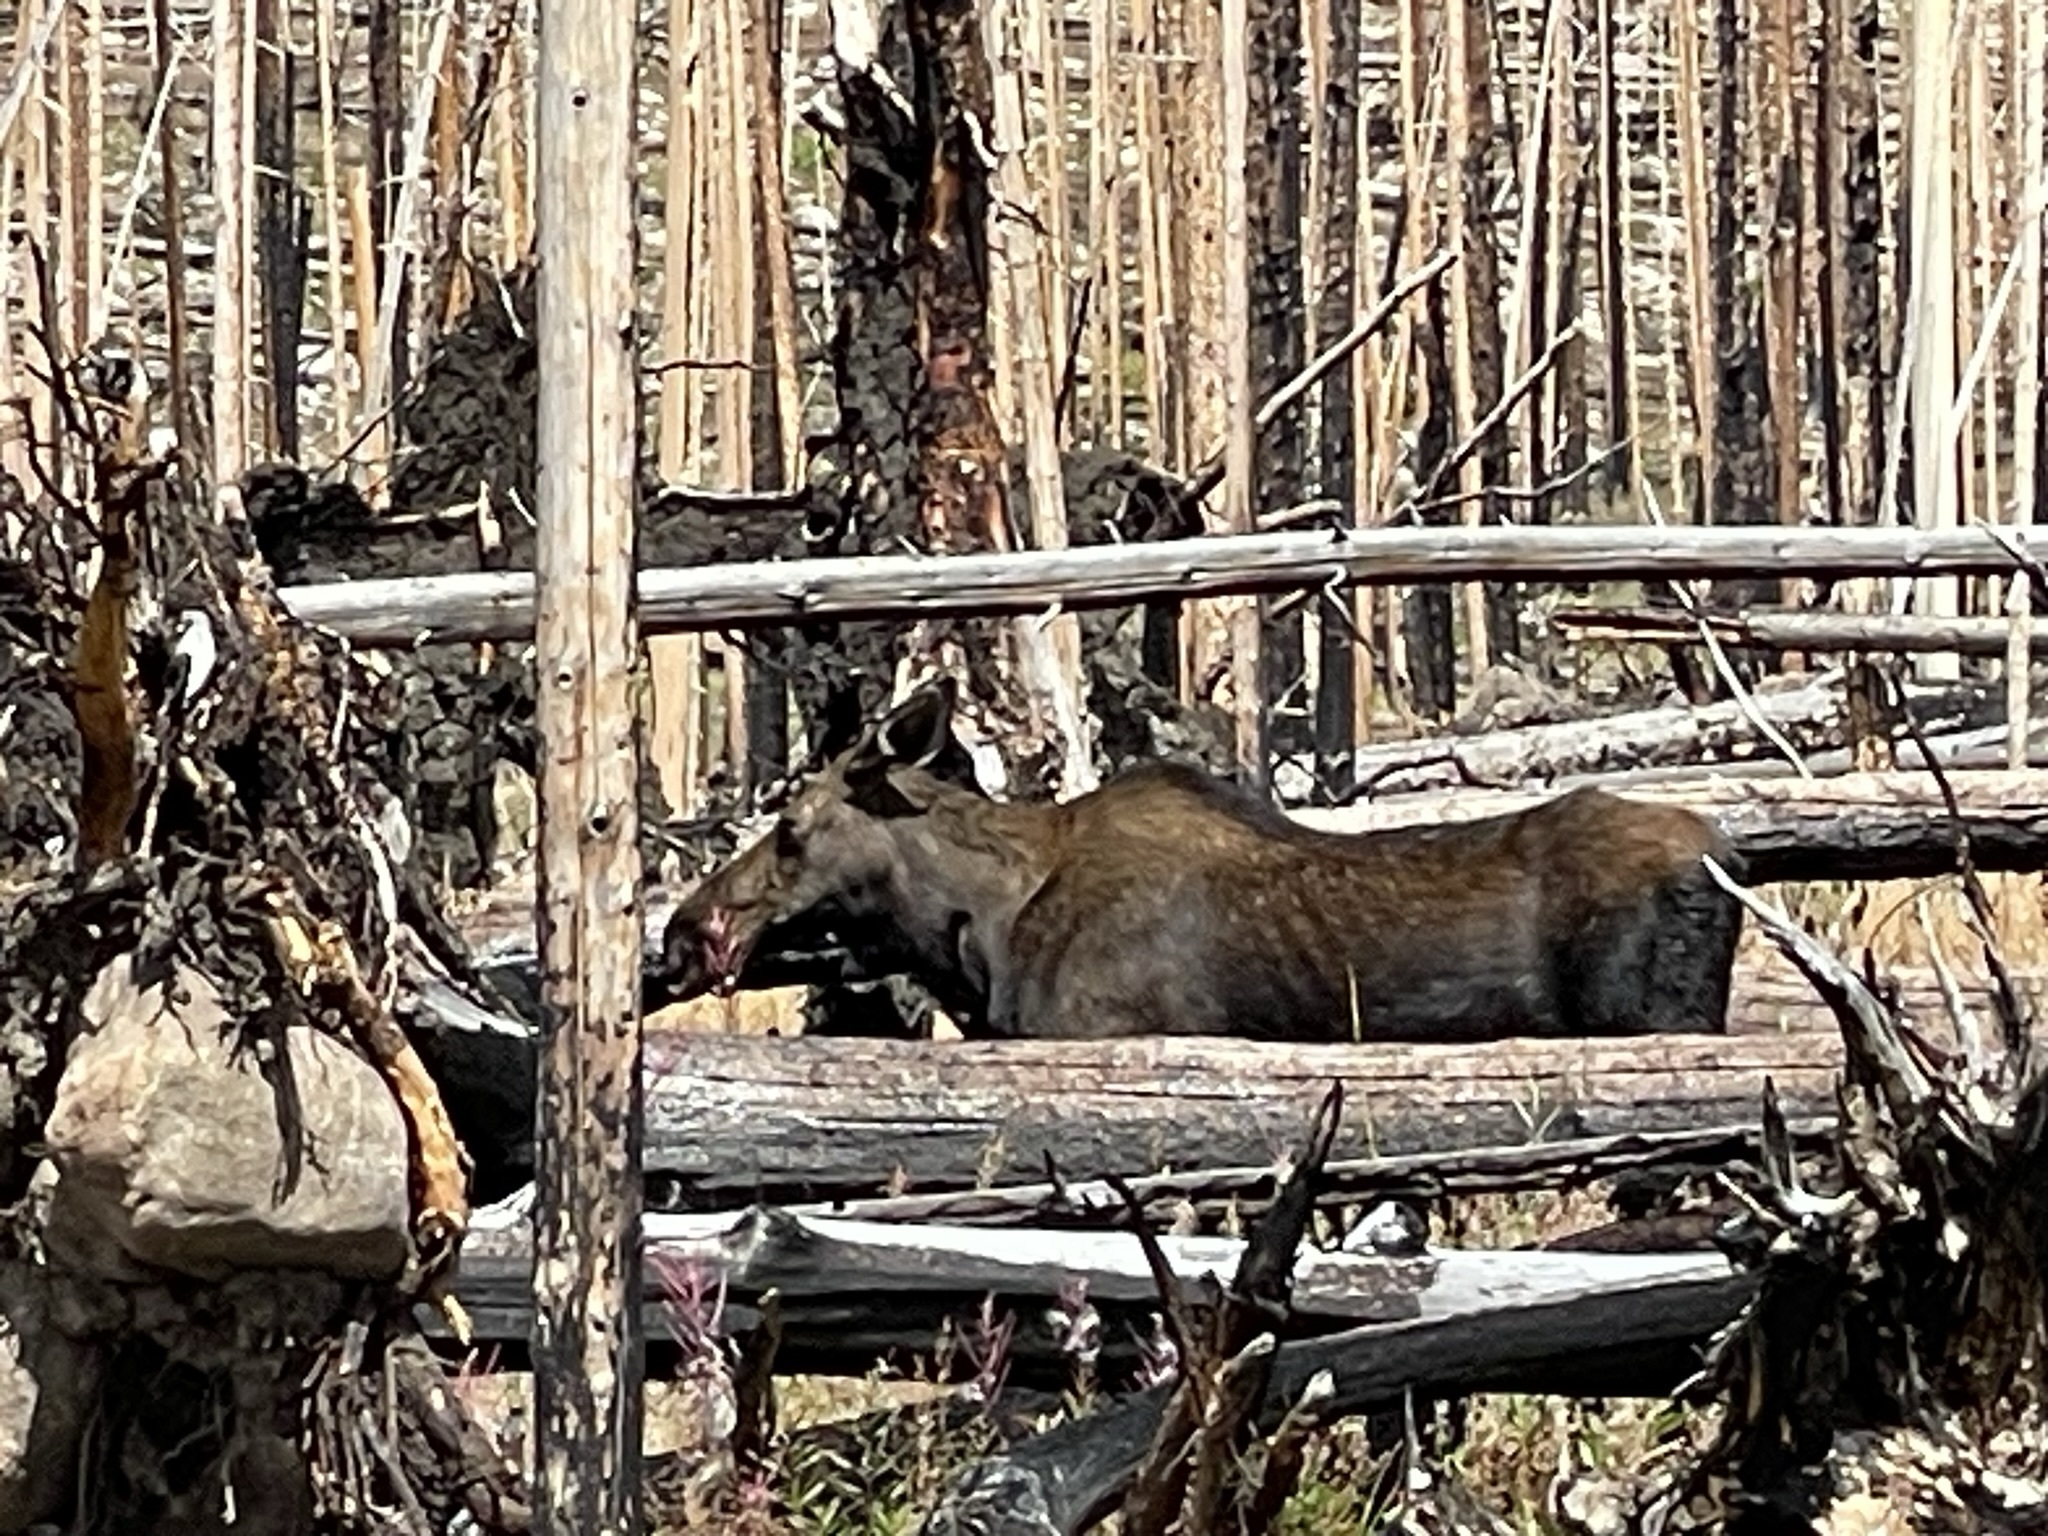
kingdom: Animalia
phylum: Chordata
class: Mammalia
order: Artiodactyla
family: Cervidae
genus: Alces
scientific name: Alces alces
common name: Moose
